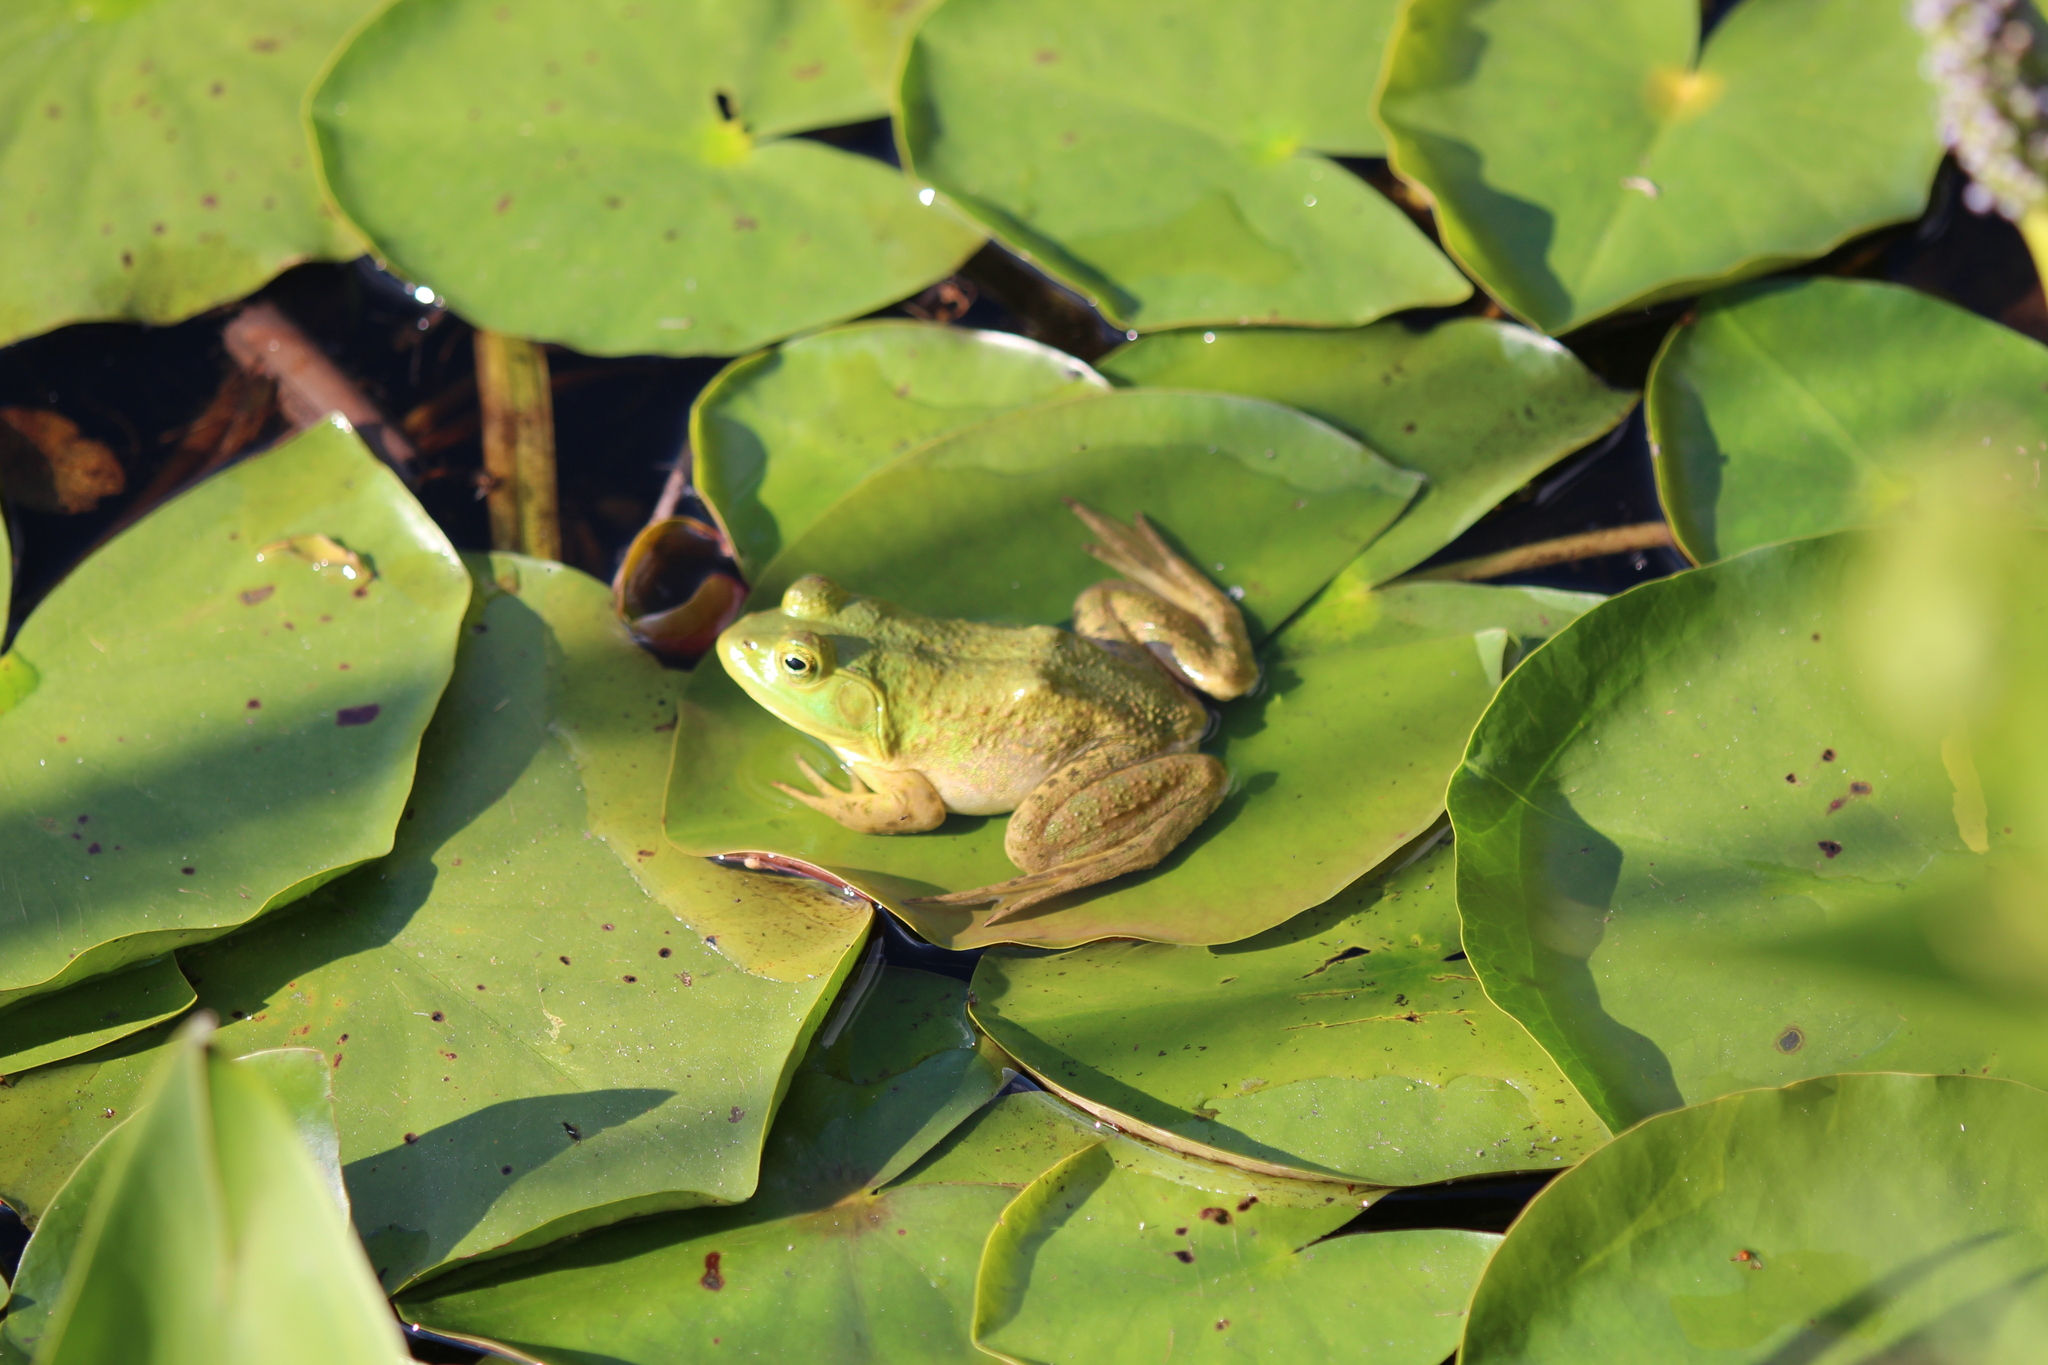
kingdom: Animalia
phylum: Chordata
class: Amphibia
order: Anura
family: Ranidae
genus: Lithobates
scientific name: Lithobates catesbeianus
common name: American bullfrog
